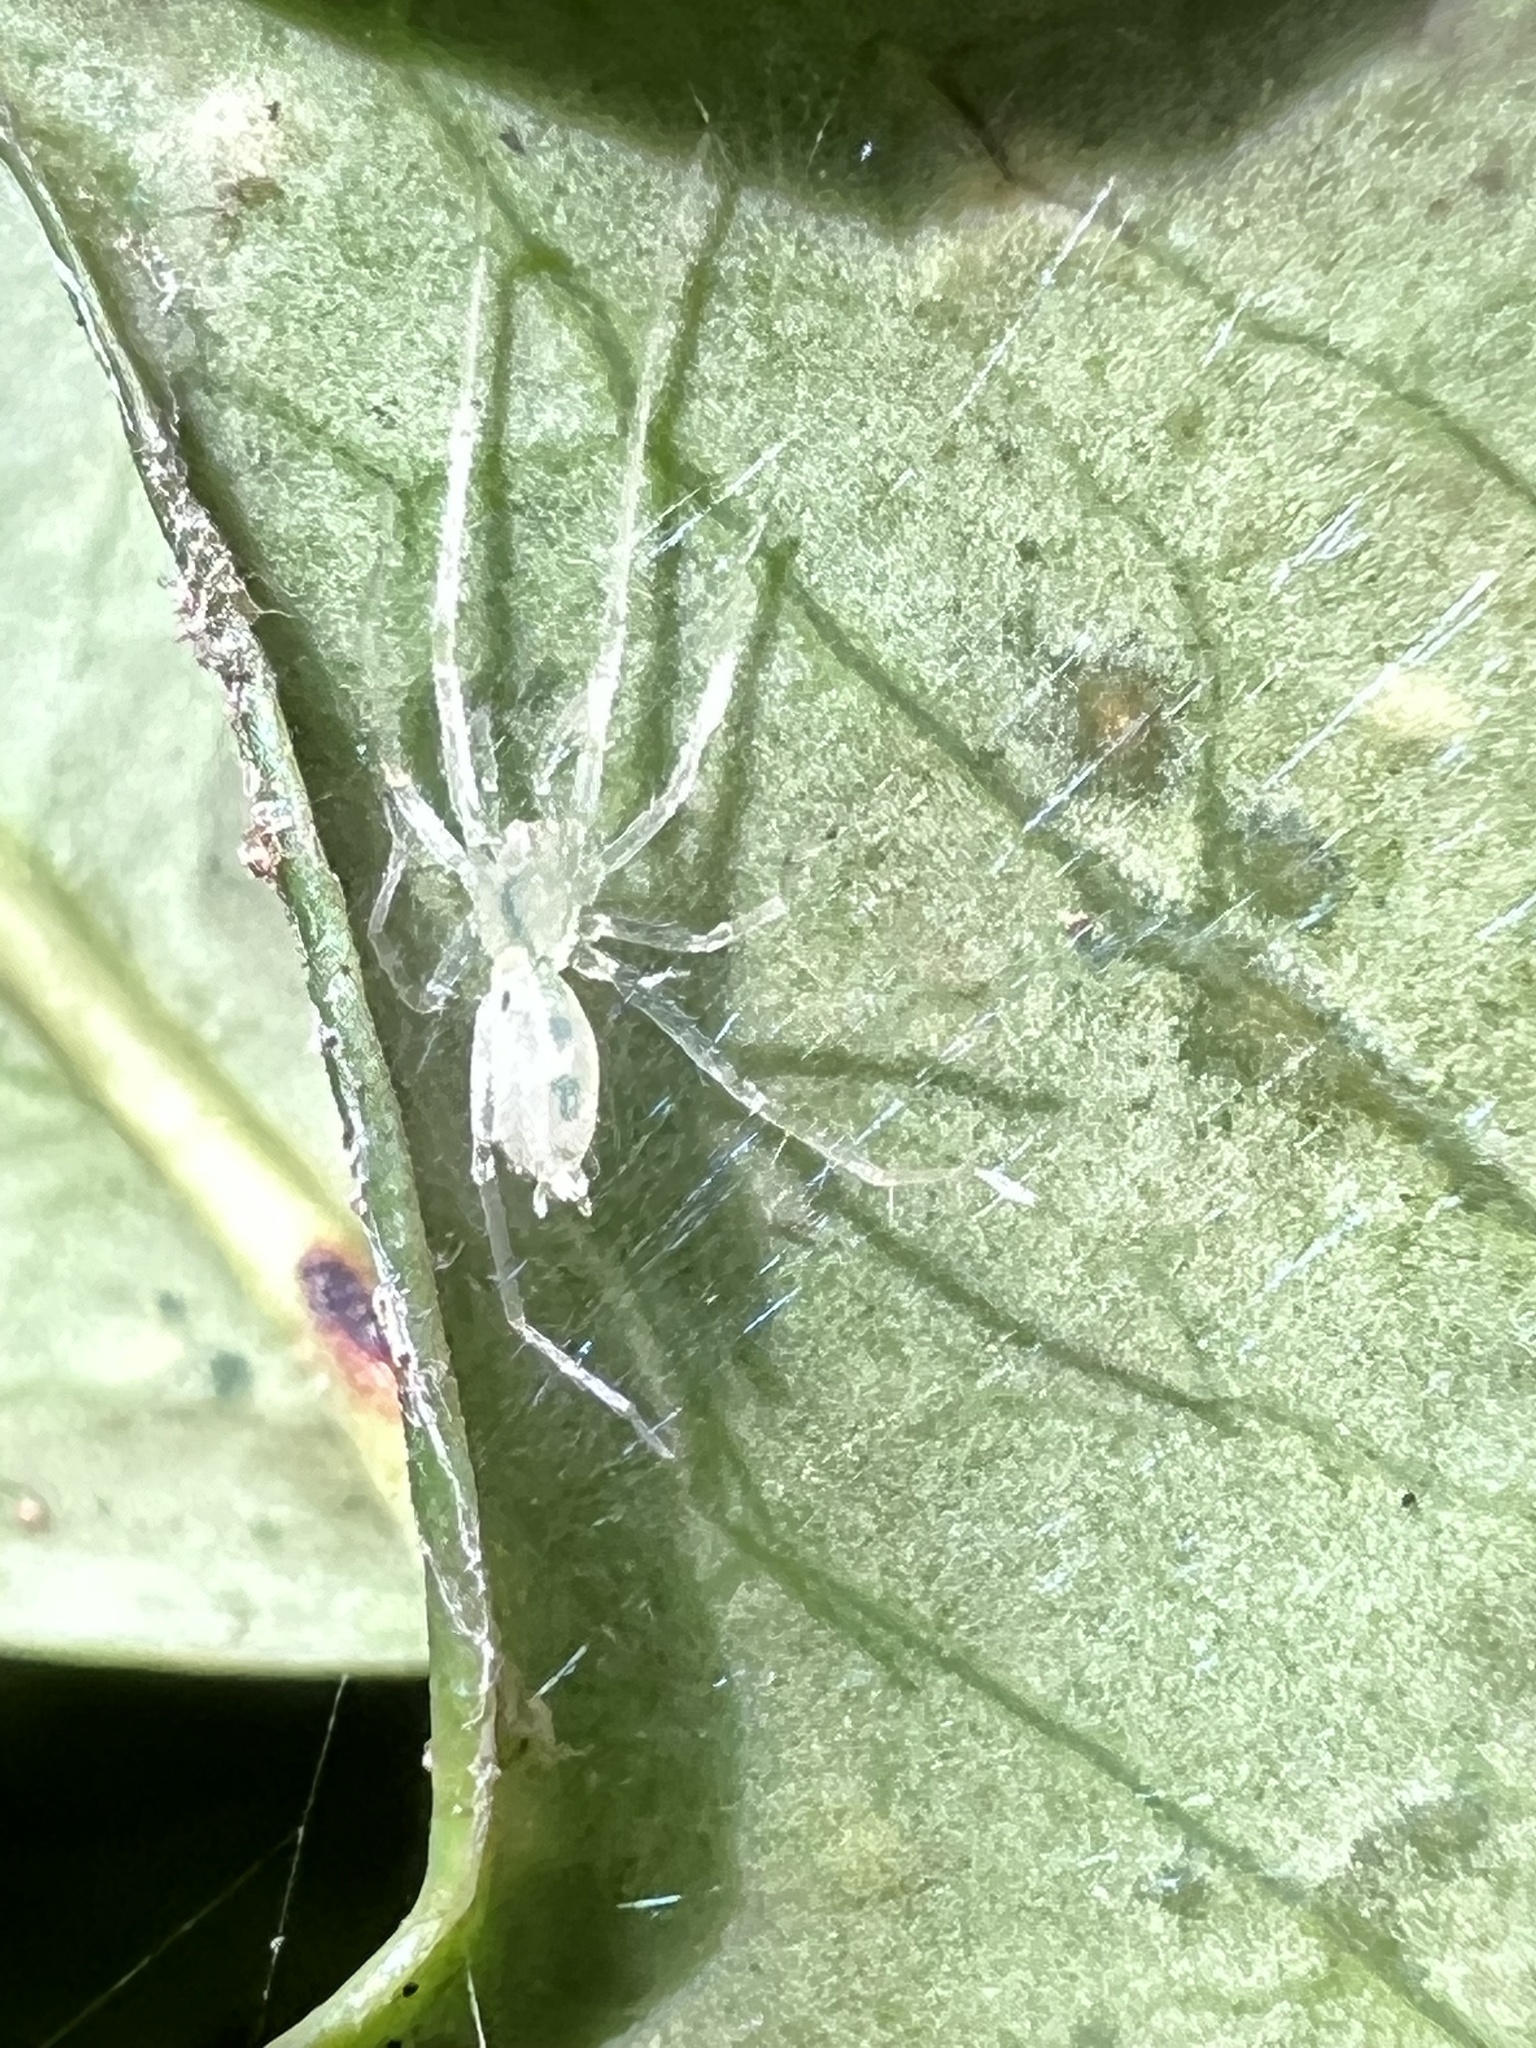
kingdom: Animalia
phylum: Arthropoda
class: Arachnida
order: Araneae
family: Anyphaenidae
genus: Wulfila
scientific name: Wulfila albens
